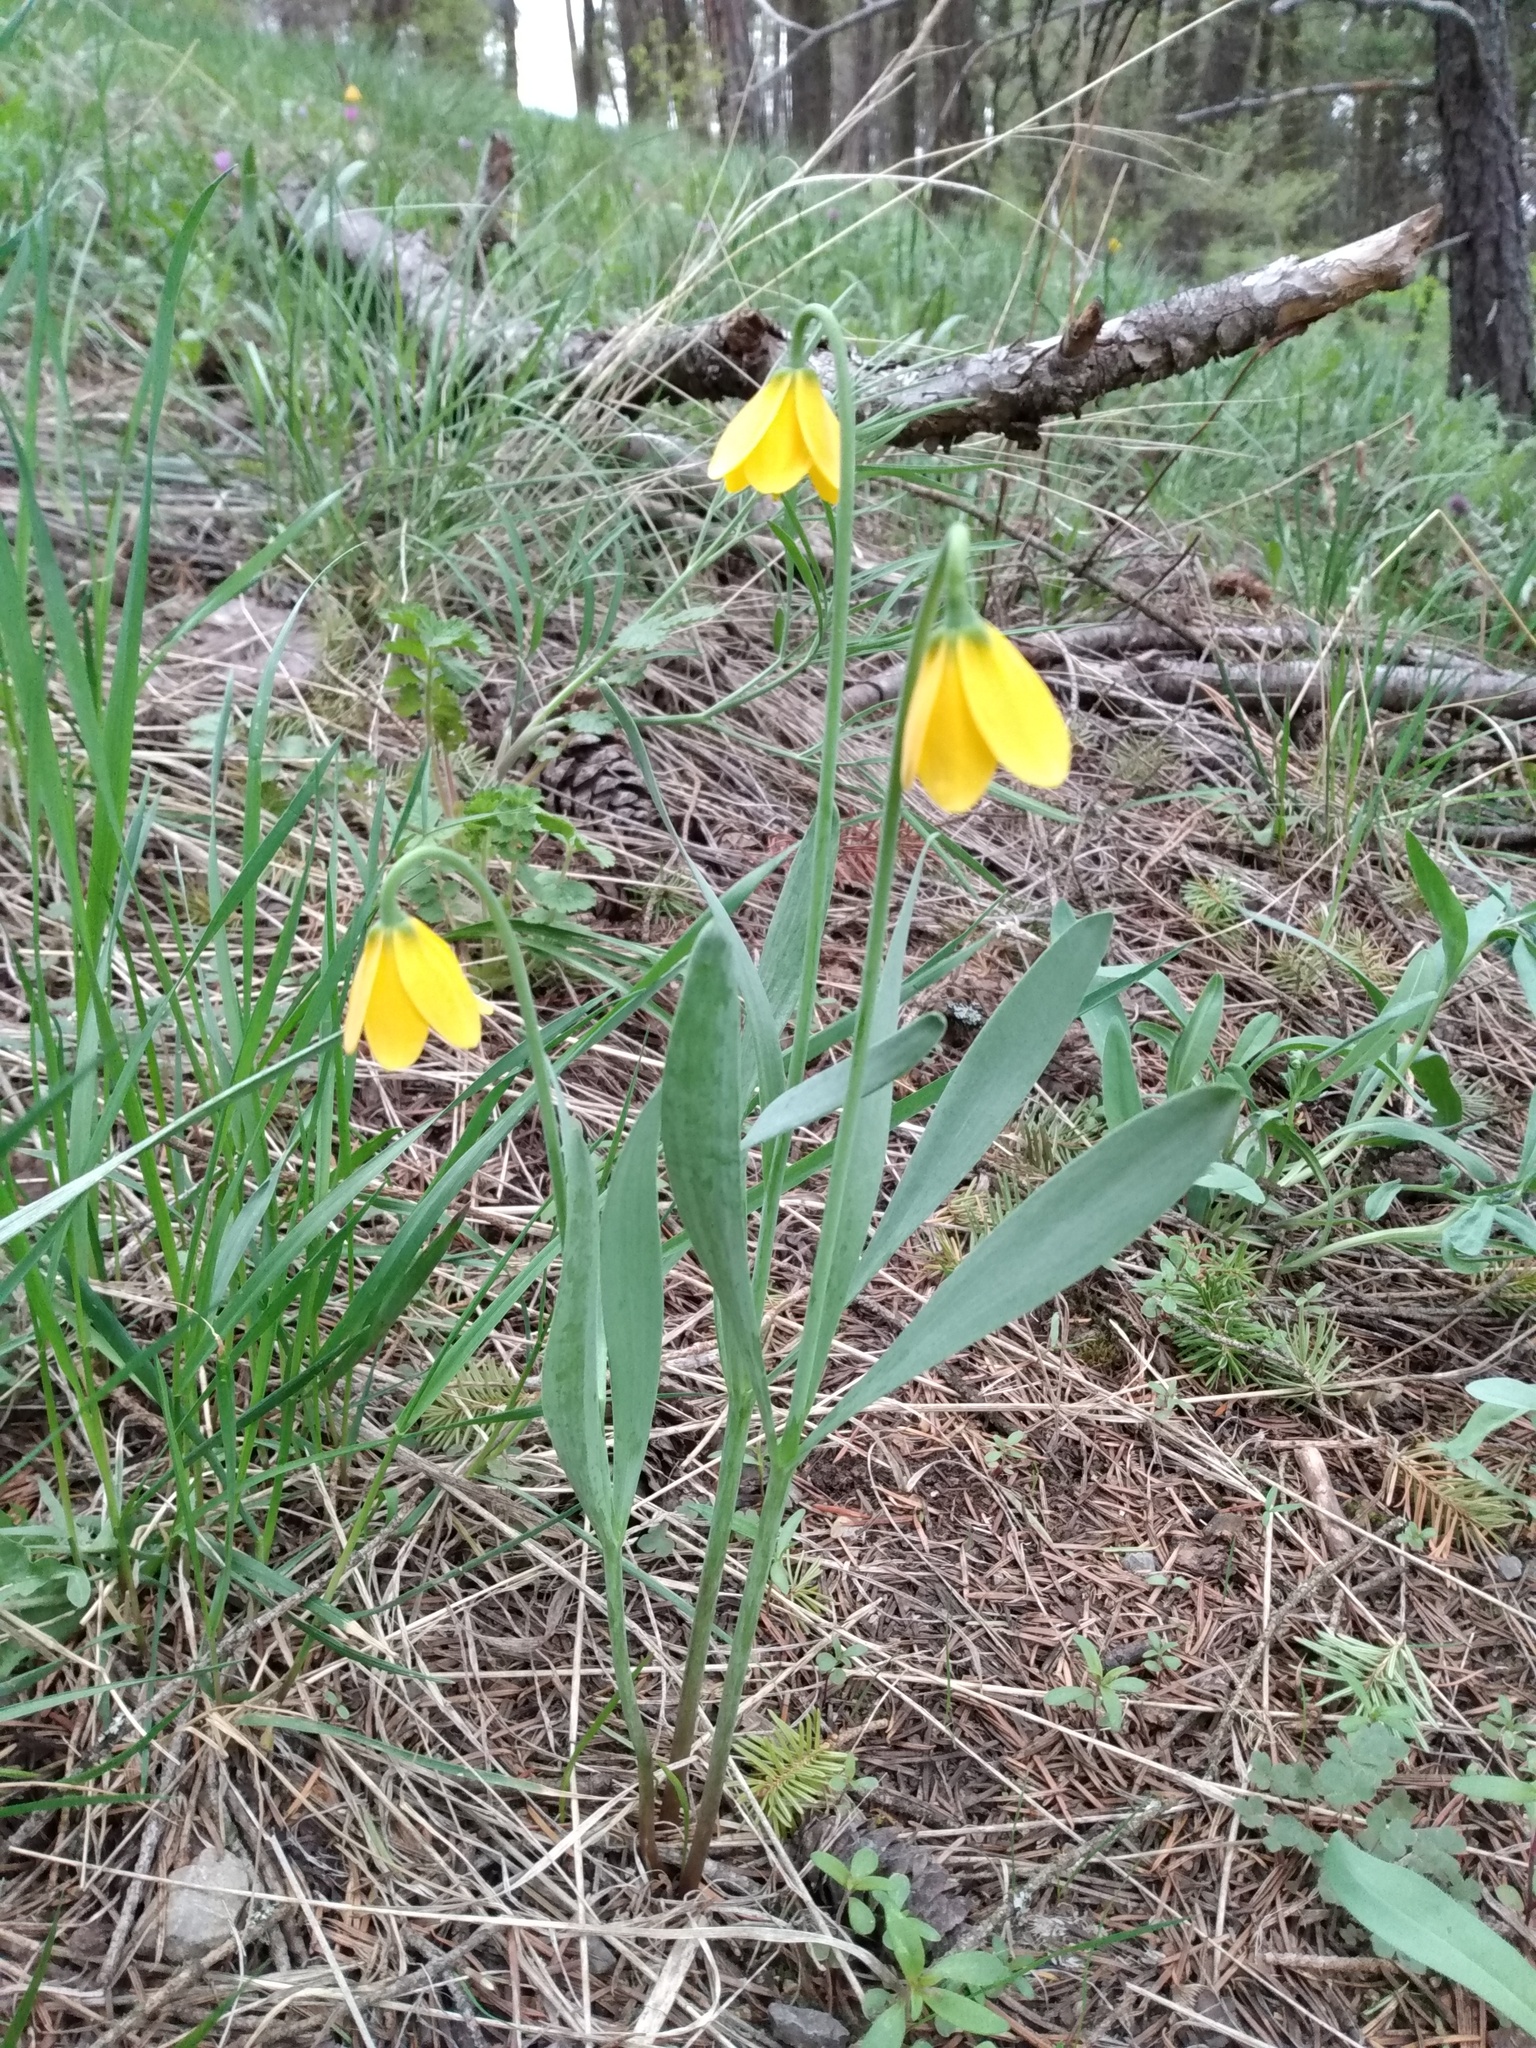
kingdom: Plantae
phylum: Tracheophyta
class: Liliopsida
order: Liliales
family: Liliaceae
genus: Fritillaria
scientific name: Fritillaria pudica
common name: Yellow fritillary
